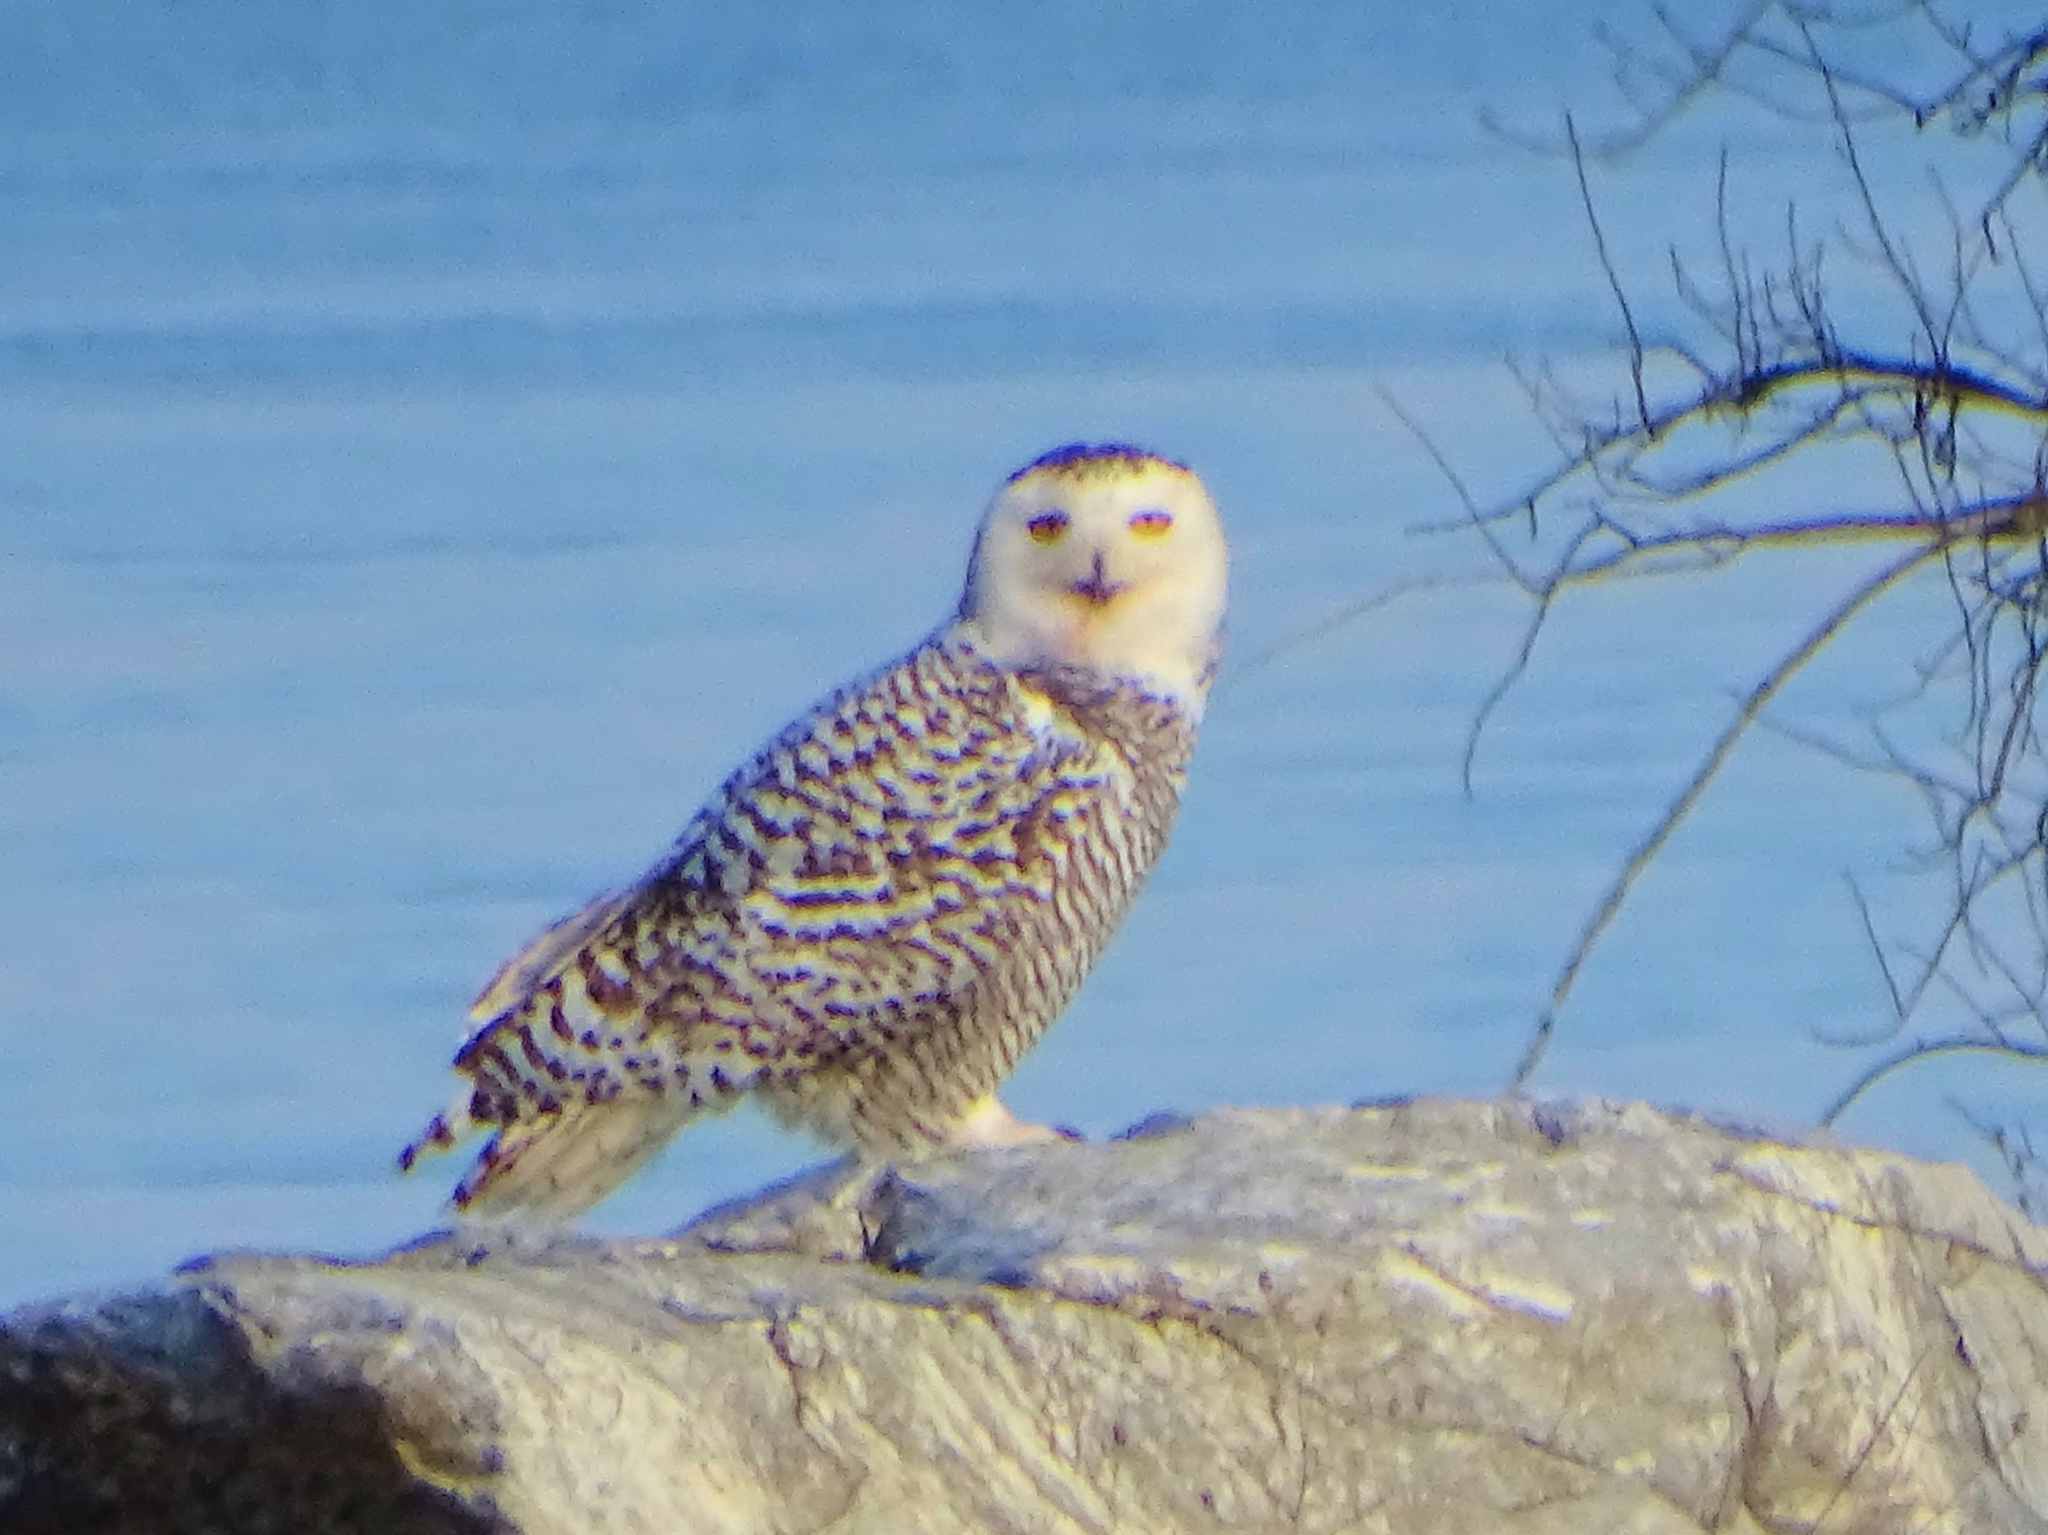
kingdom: Animalia
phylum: Chordata
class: Aves
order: Strigiformes
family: Strigidae
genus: Bubo
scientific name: Bubo scandiacus
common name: Snowy owl
